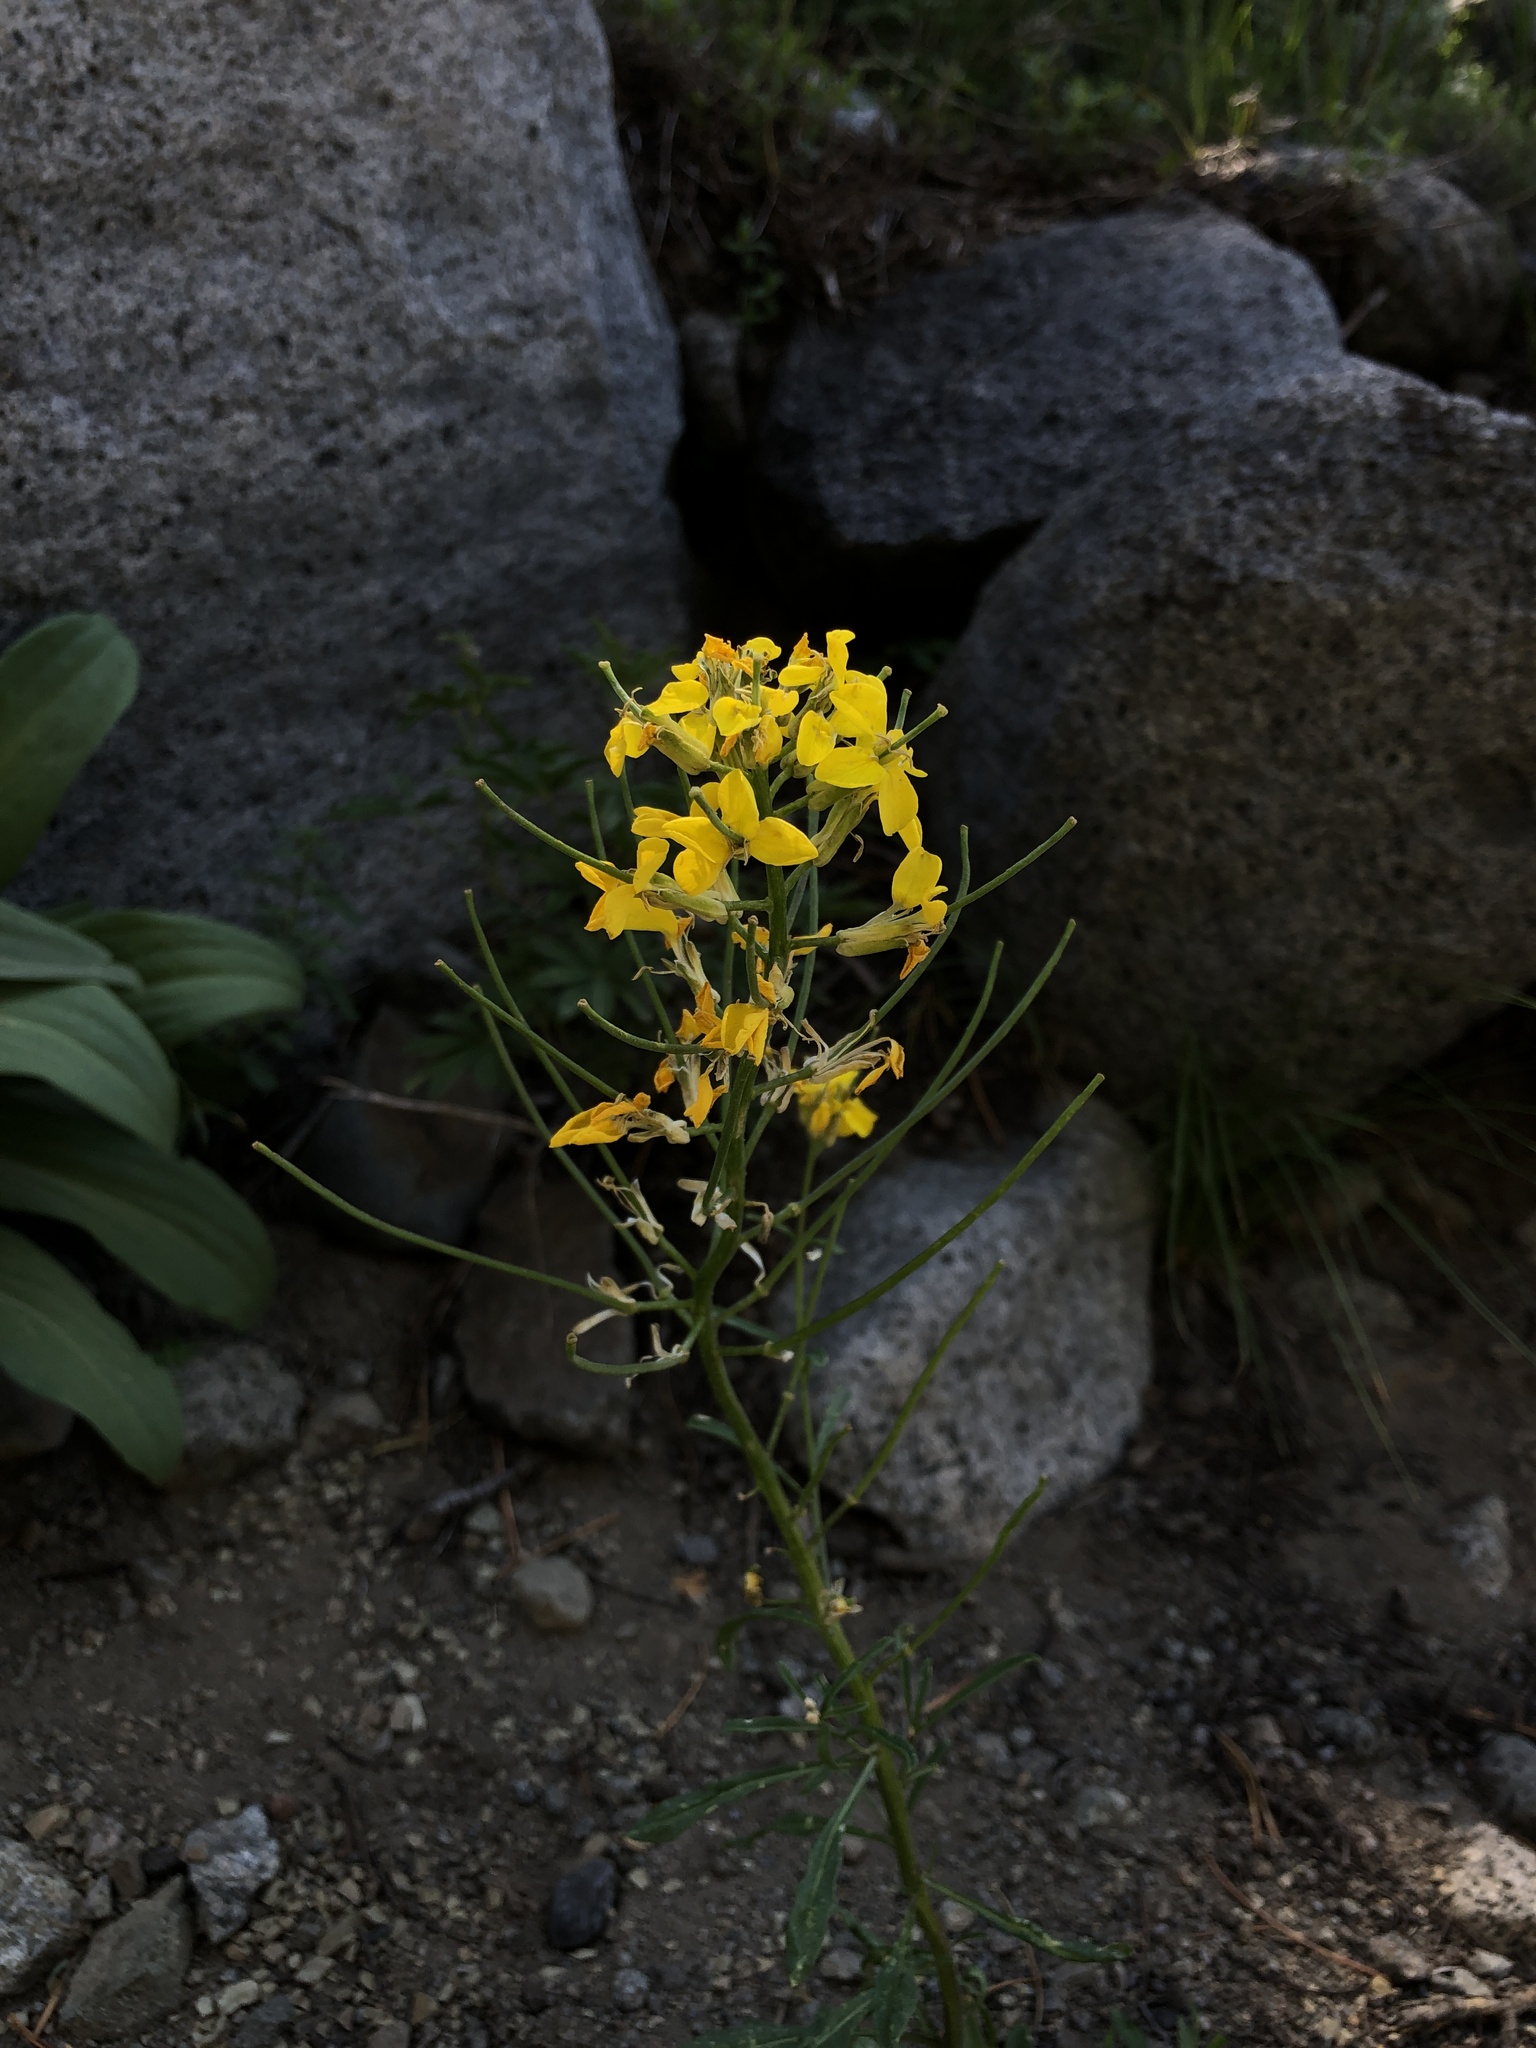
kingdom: Plantae
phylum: Tracheophyta
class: Magnoliopsida
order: Brassicales
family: Brassicaceae
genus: Erysimum
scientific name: Erysimum capitatum
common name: Western wallflower
